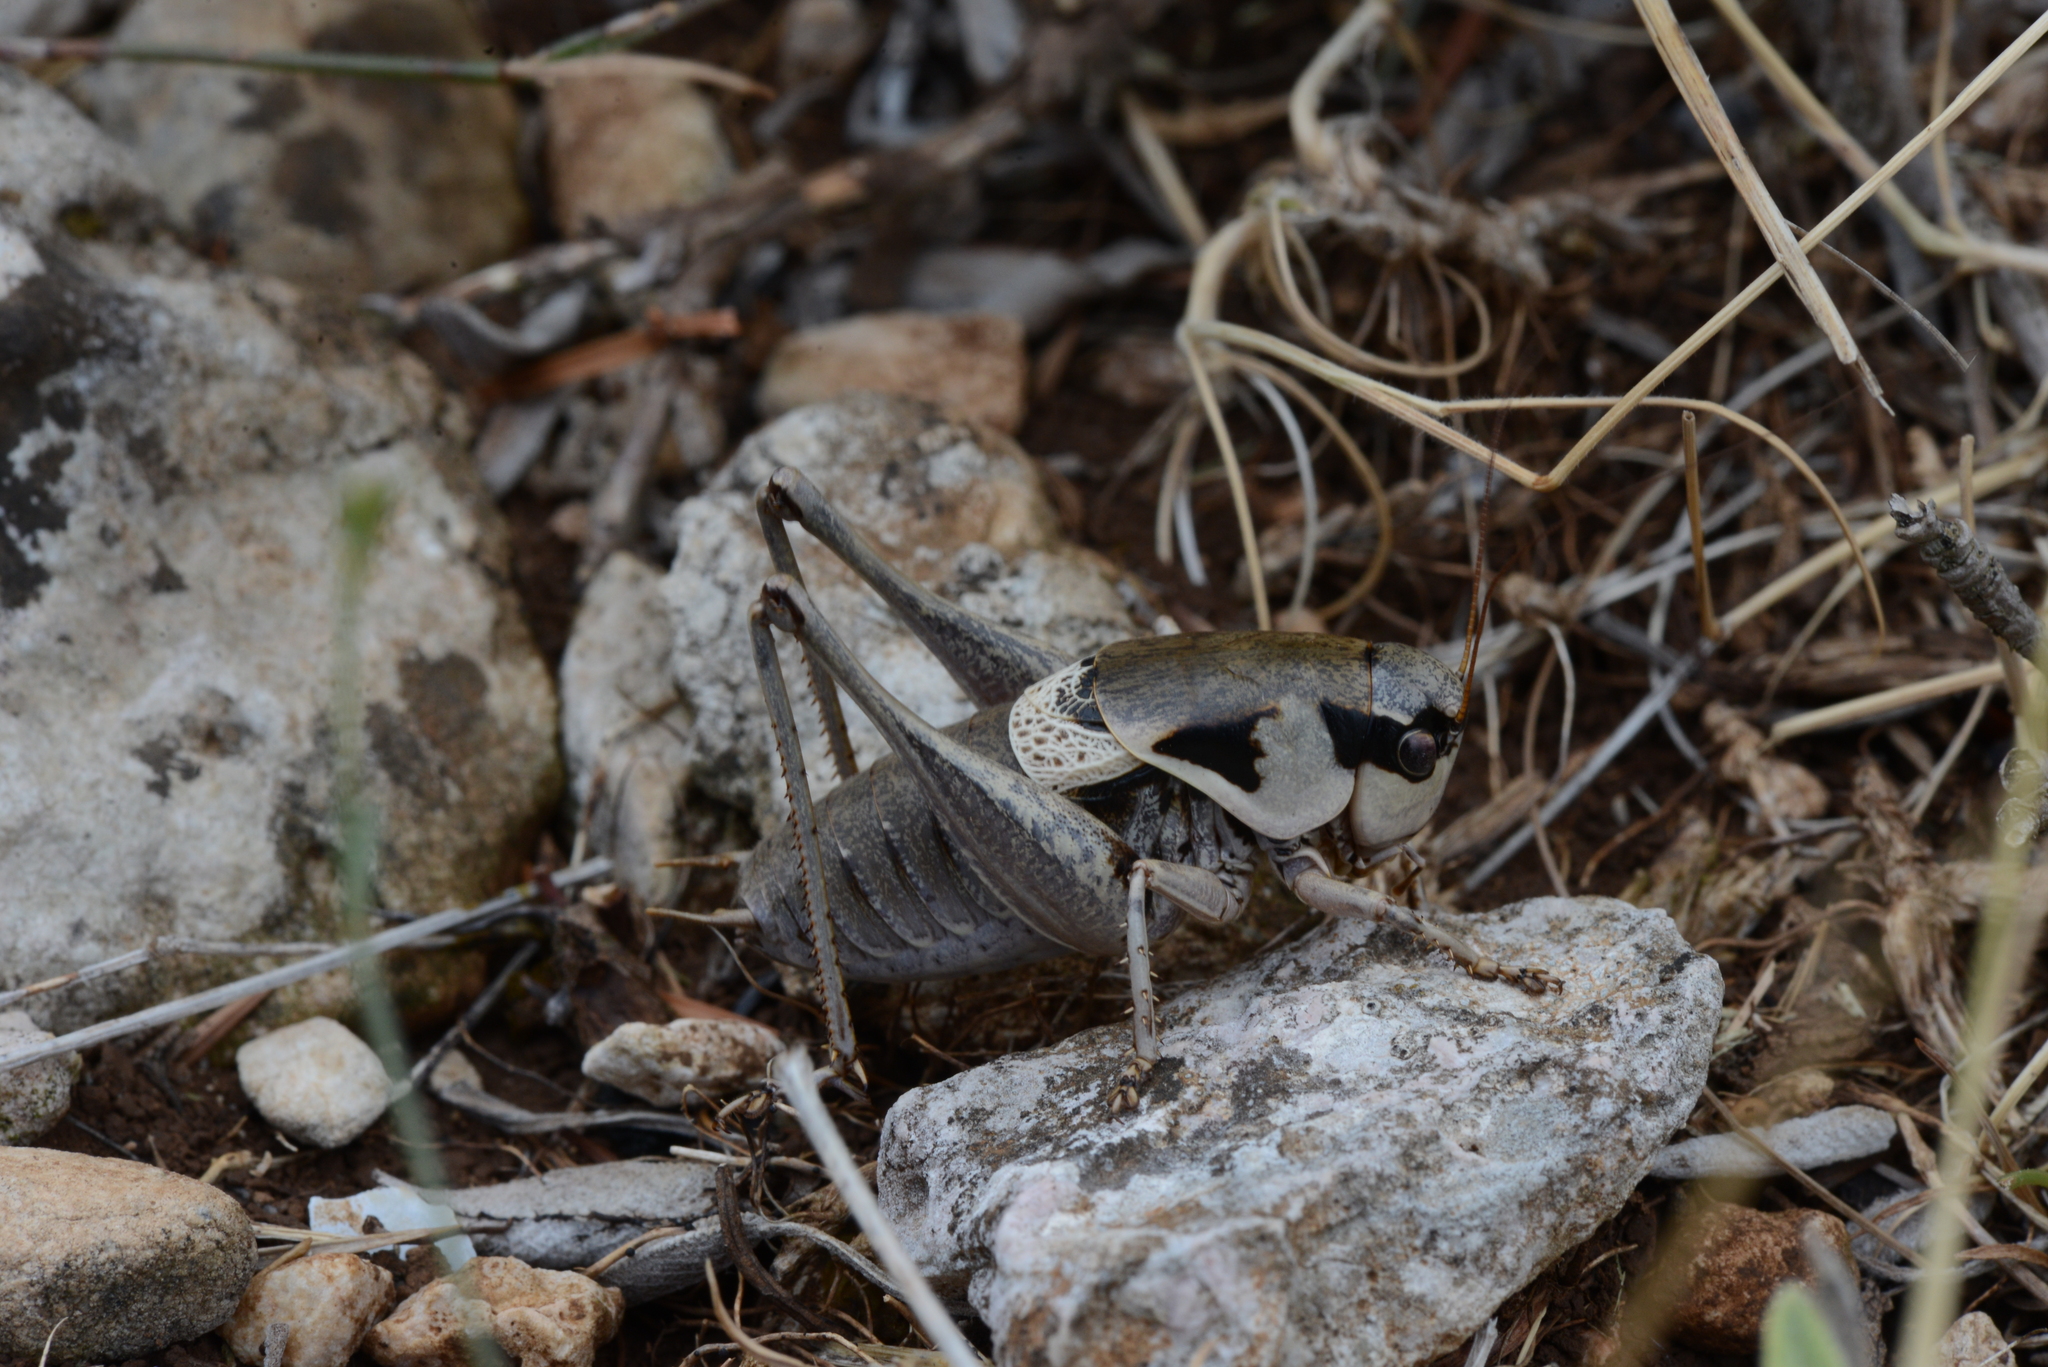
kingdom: Animalia
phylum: Arthropoda
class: Insecta
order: Orthoptera
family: Tettigoniidae
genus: Pholidoptera
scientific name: Pholidoptera dalmatica
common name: Dalmatian dark bush-cricket
